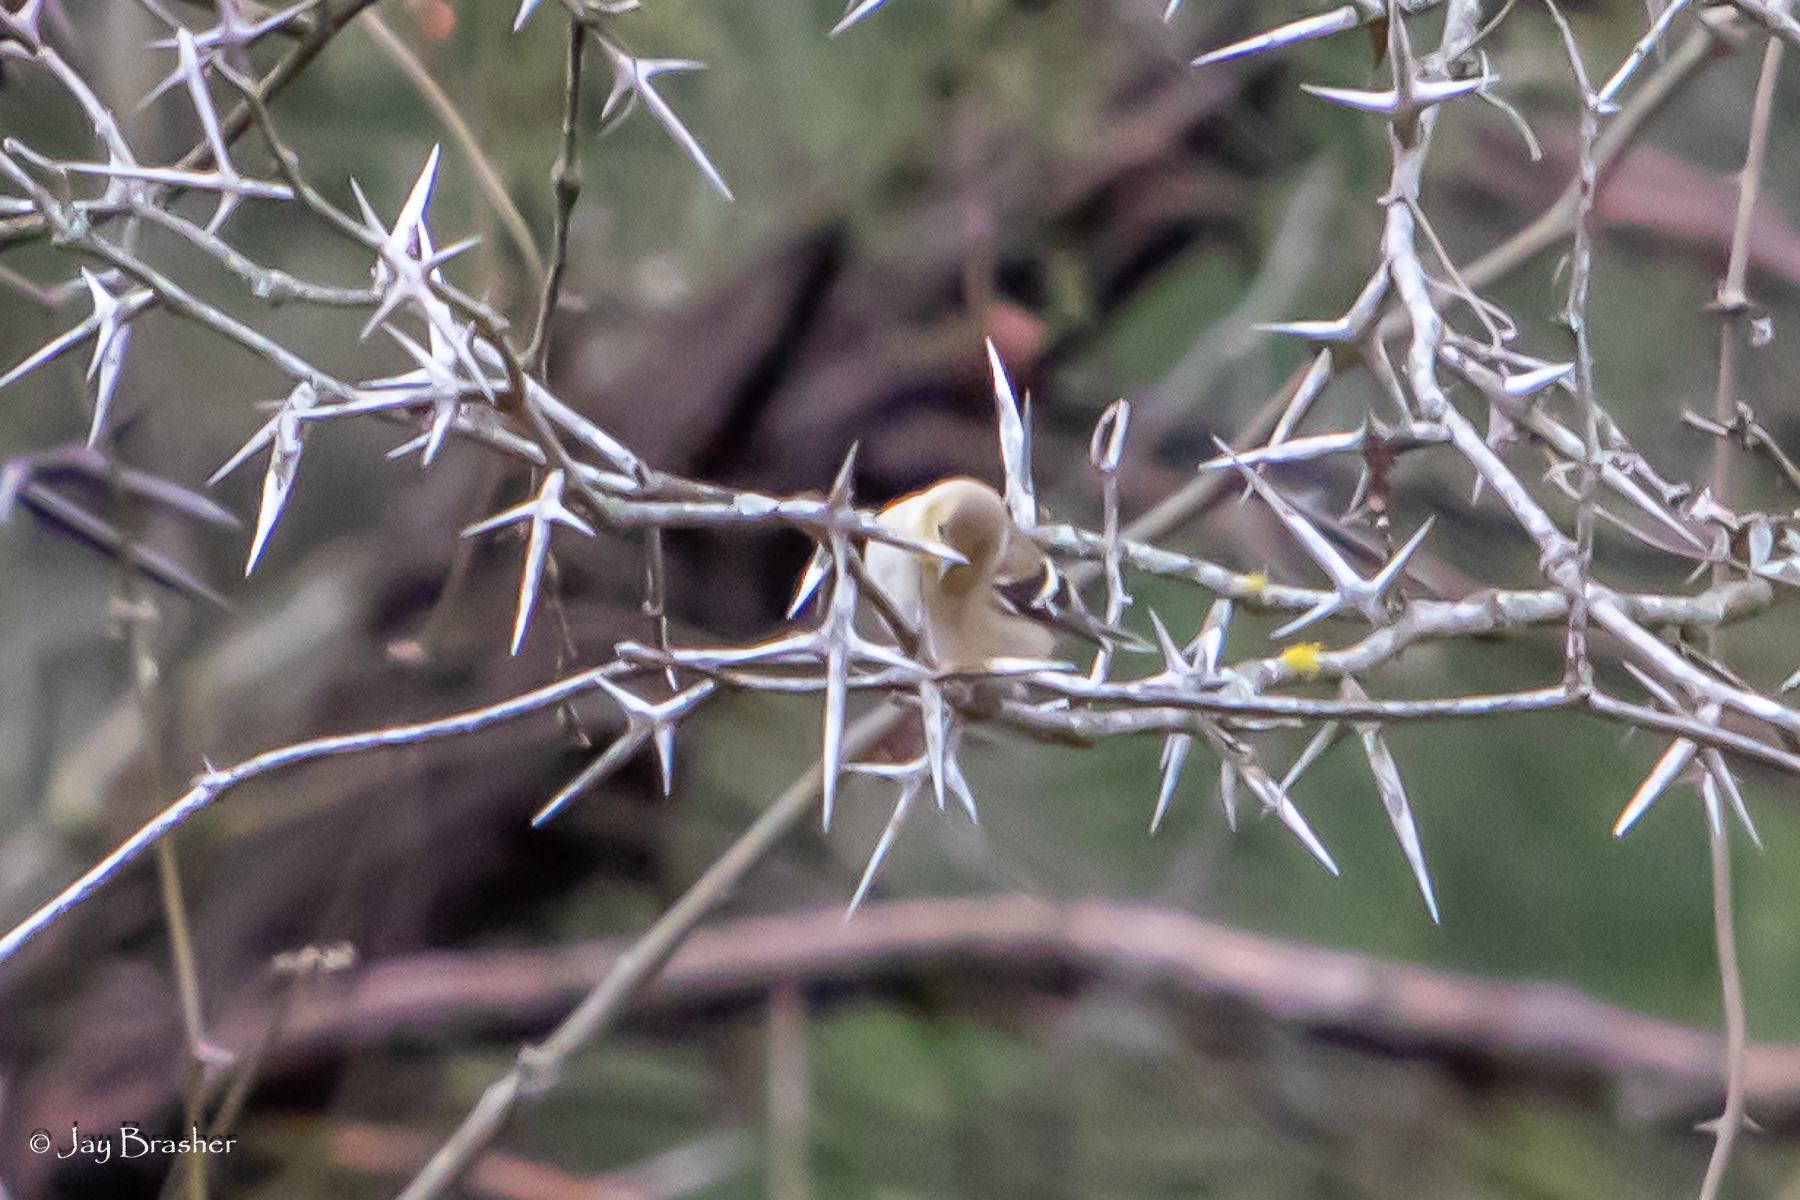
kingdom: Animalia
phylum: Chordata
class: Aves
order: Passeriformes
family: Fringillidae
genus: Spinus
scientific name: Spinus tristis
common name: American goldfinch
